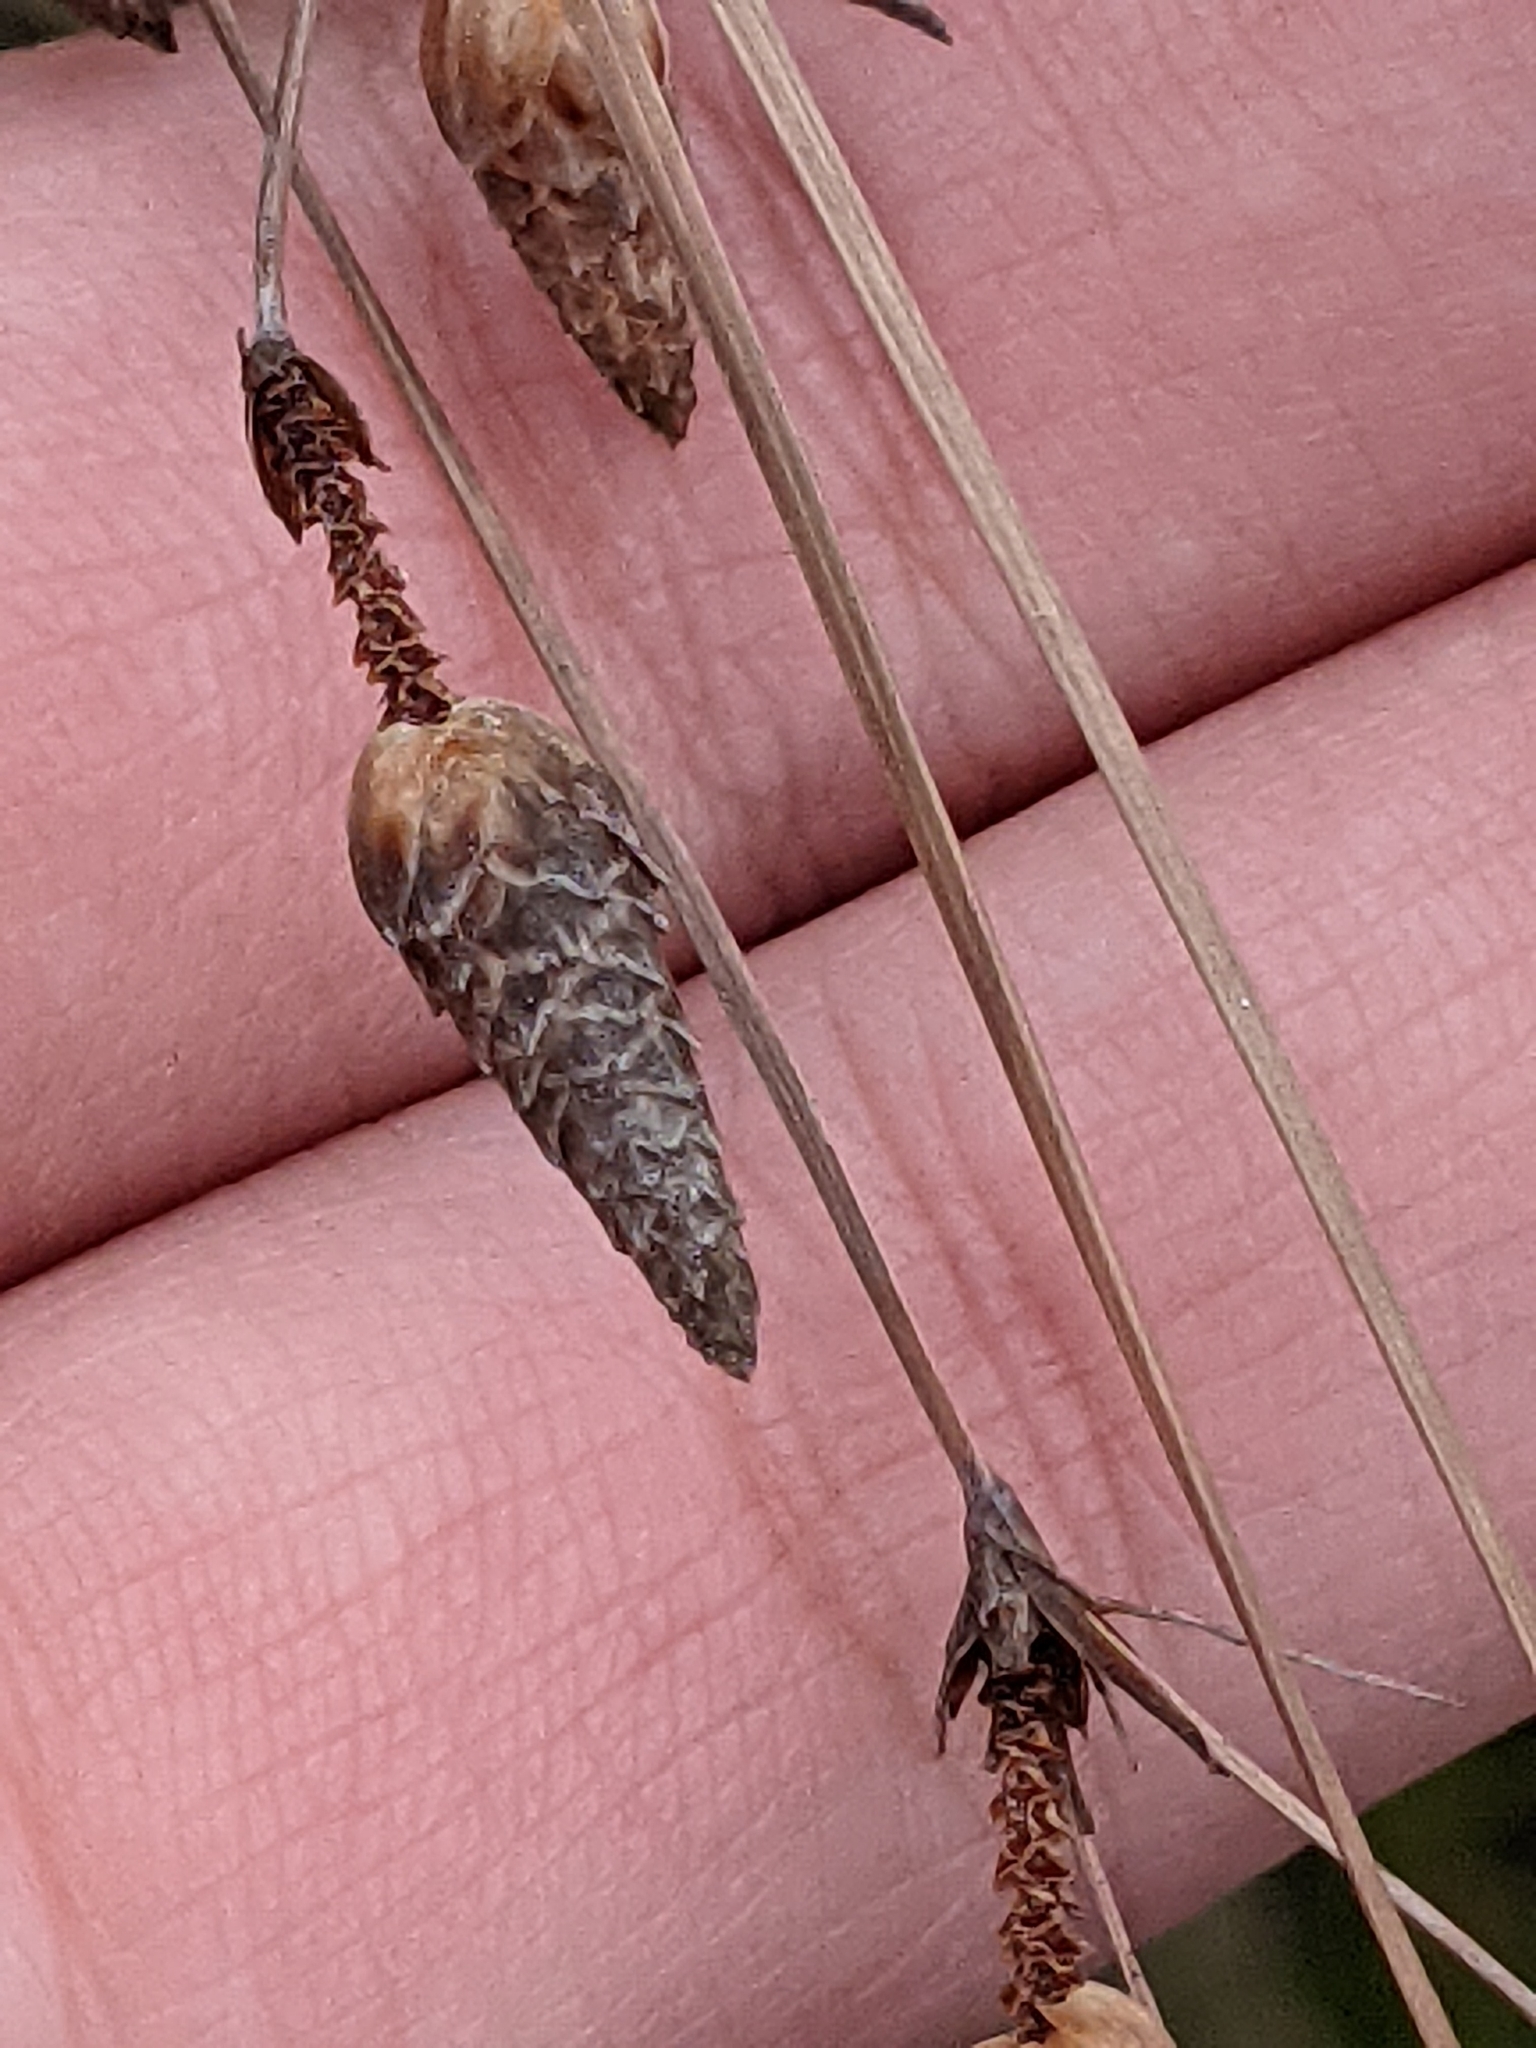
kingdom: Plantae
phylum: Tracheophyta
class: Liliopsida
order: Poales
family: Cyperaceae
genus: Fimbristylis
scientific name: Fimbristylis spadicea
